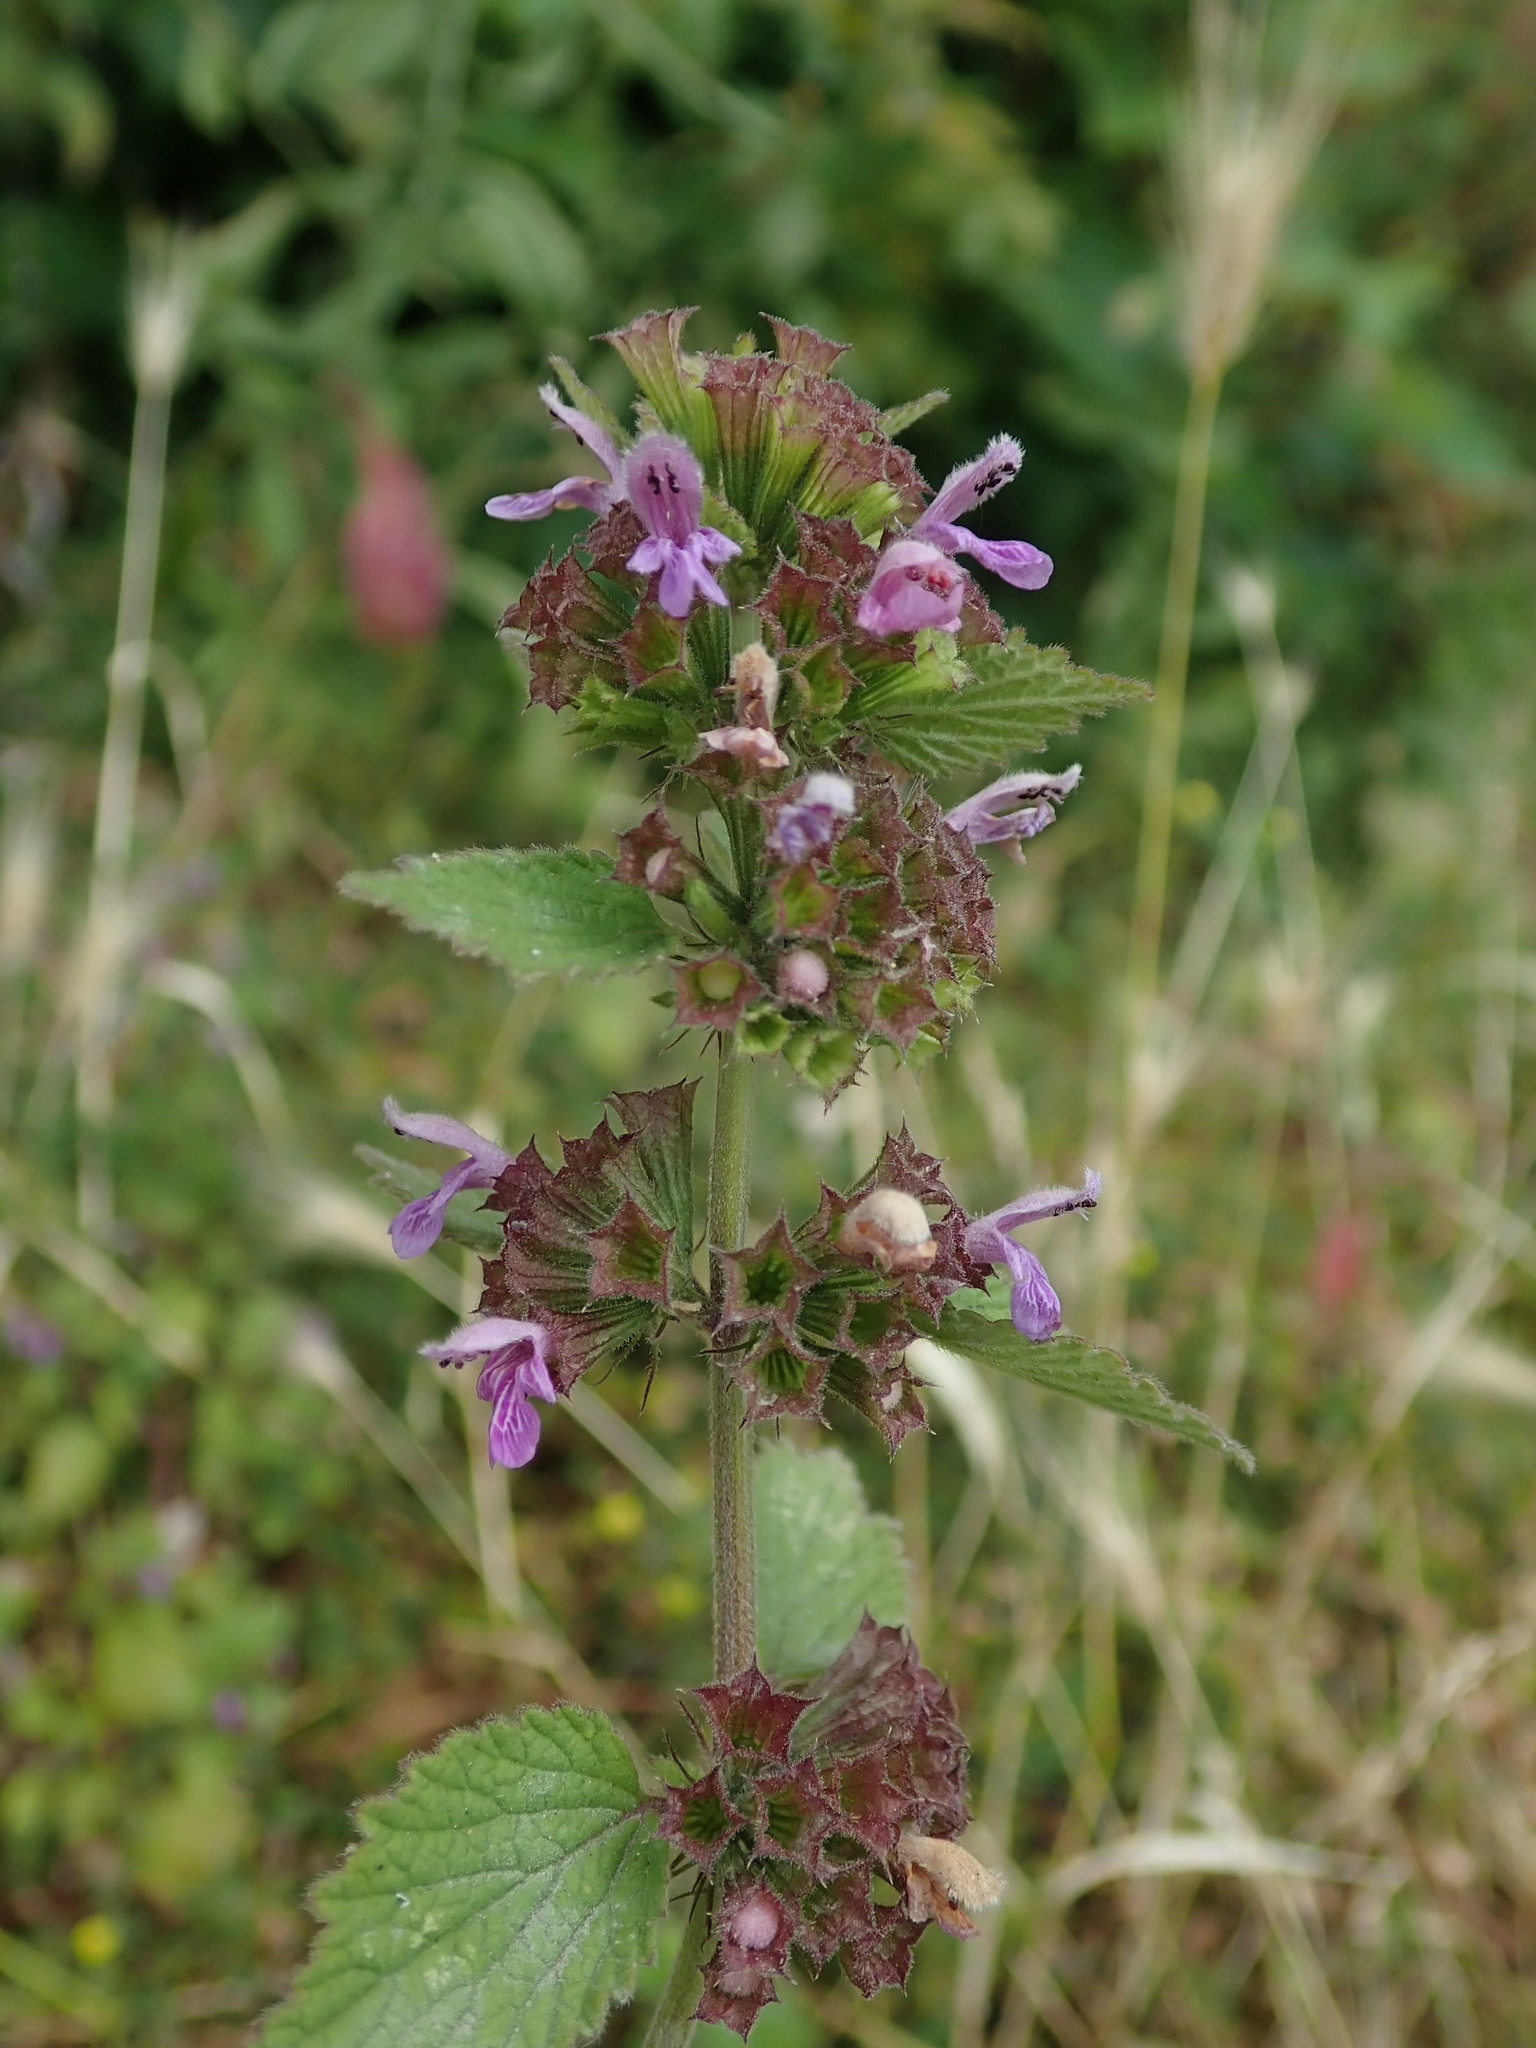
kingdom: Plantae
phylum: Tracheophyta
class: Magnoliopsida
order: Lamiales
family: Lamiaceae
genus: Ballota
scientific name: Ballota nigra
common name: Black horehound
